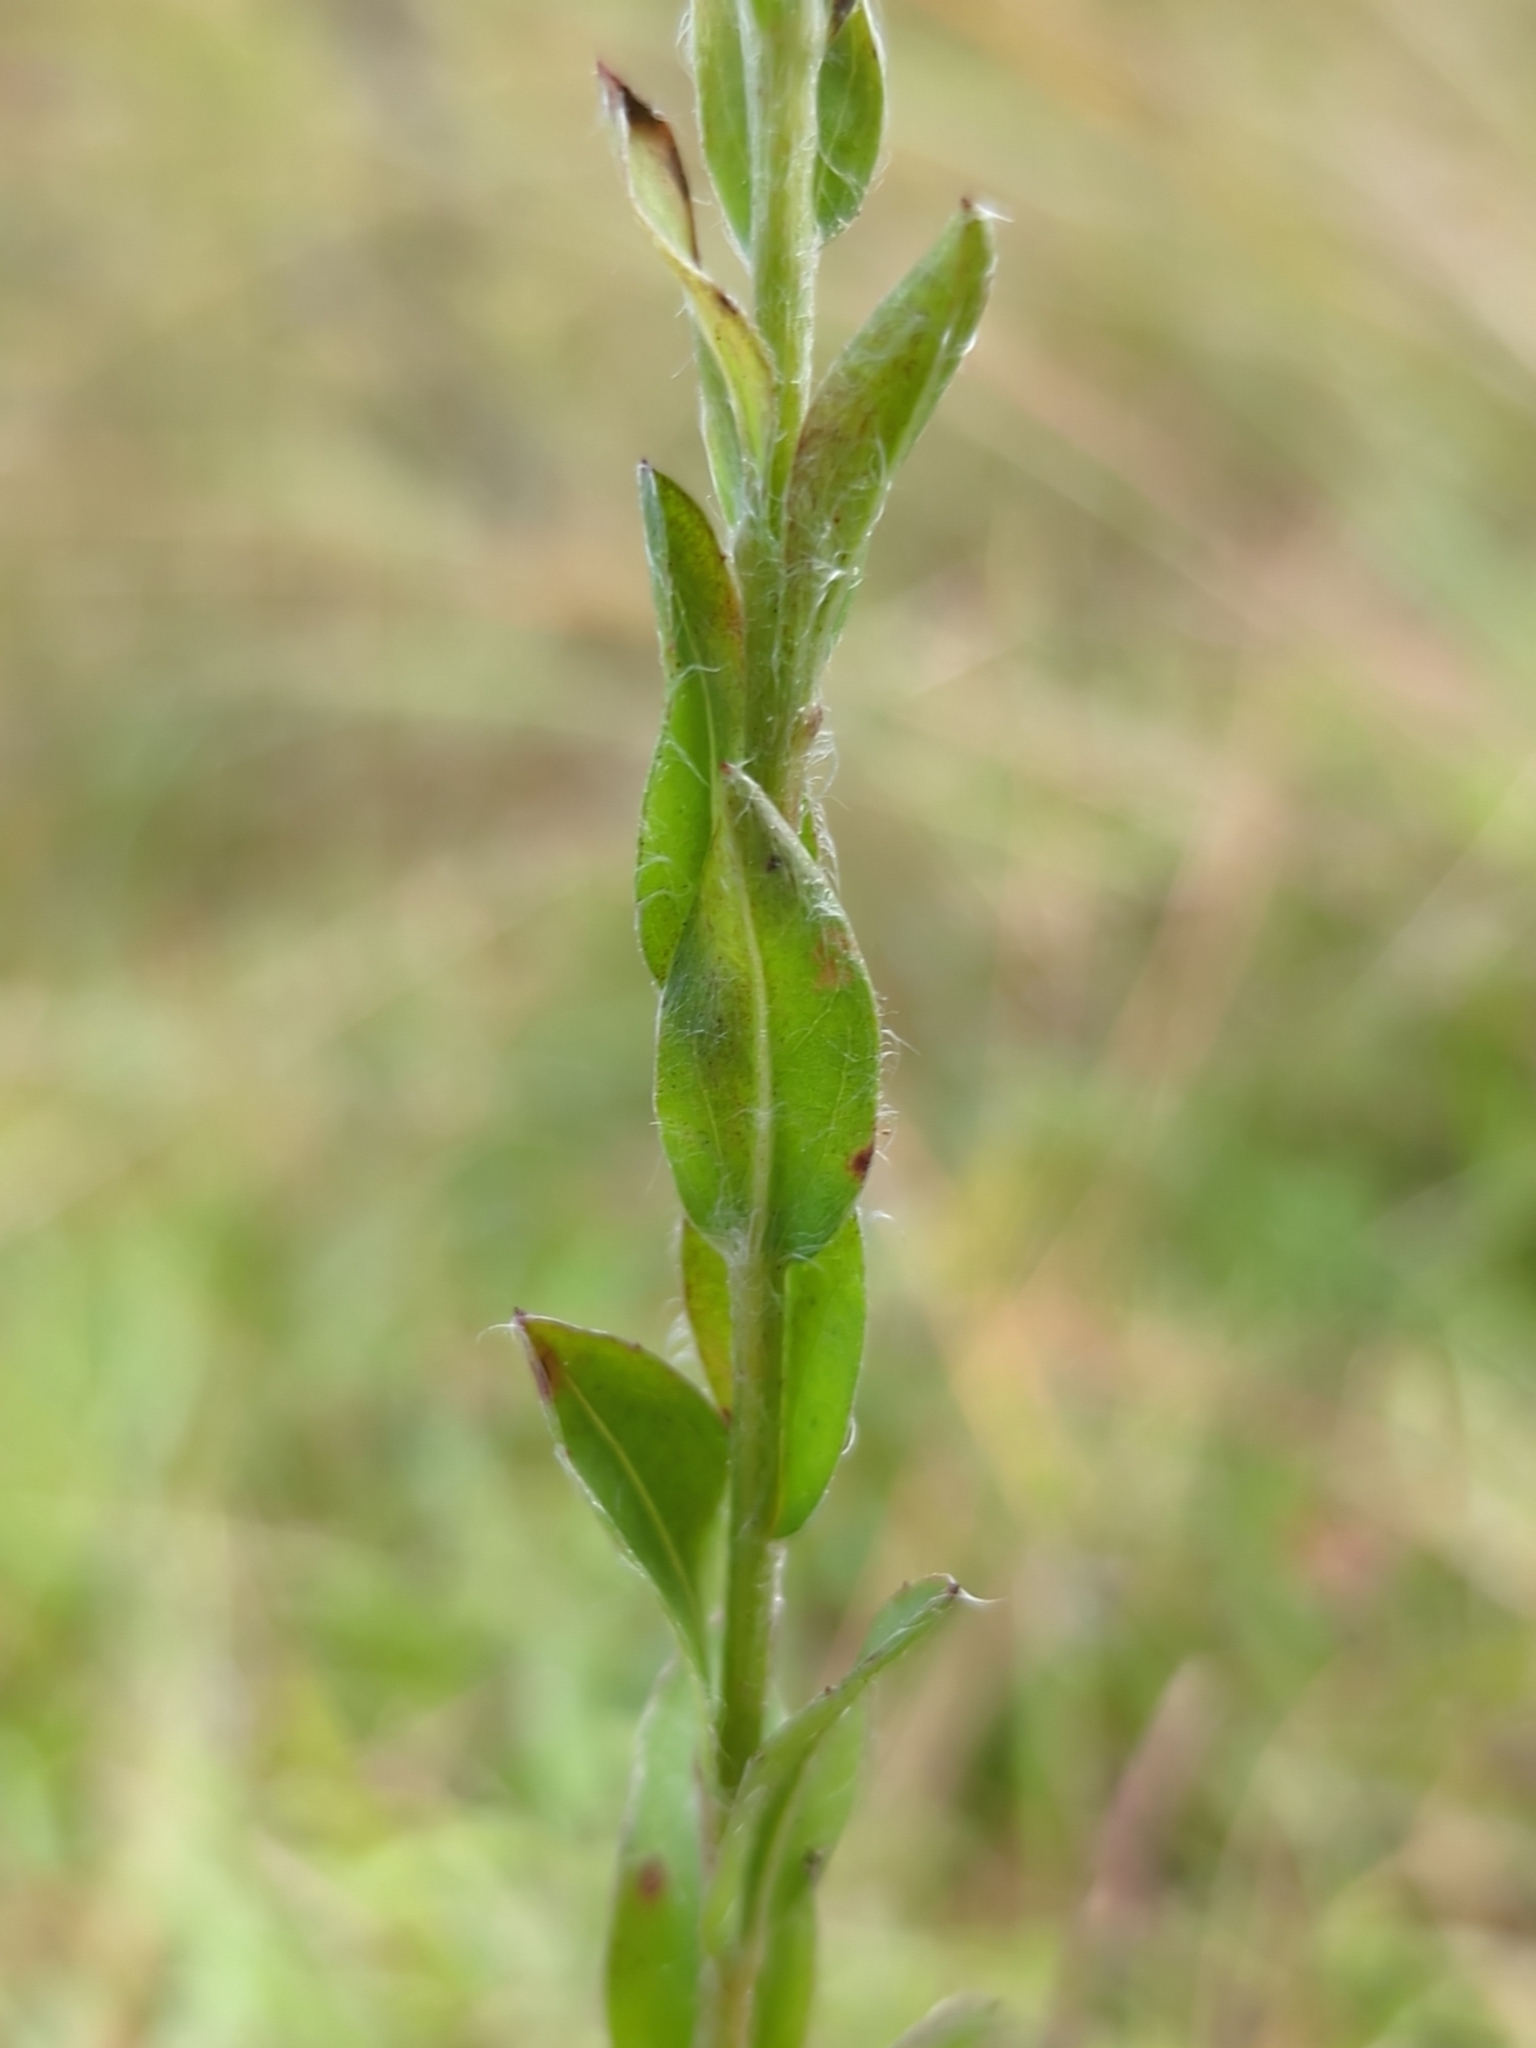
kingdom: Plantae
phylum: Tracheophyta
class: Magnoliopsida
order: Asterales
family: Asteraceae
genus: Chrysopsis
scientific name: Chrysopsis mariana
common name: Maryland golden-aster
